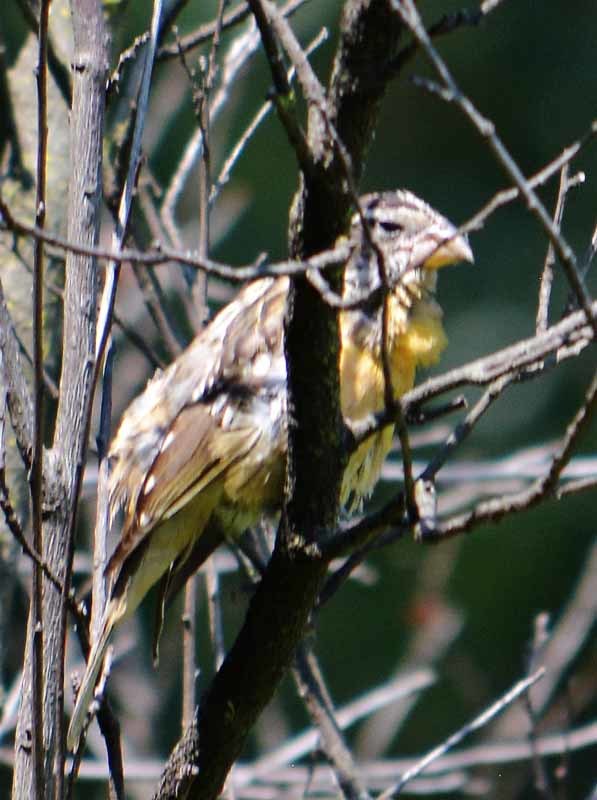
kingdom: Animalia
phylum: Chordata
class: Aves
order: Passeriformes
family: Cardinalidae
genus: Pheucticus
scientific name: Pheucticus melanocephalus
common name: Black-headed grosbeak
